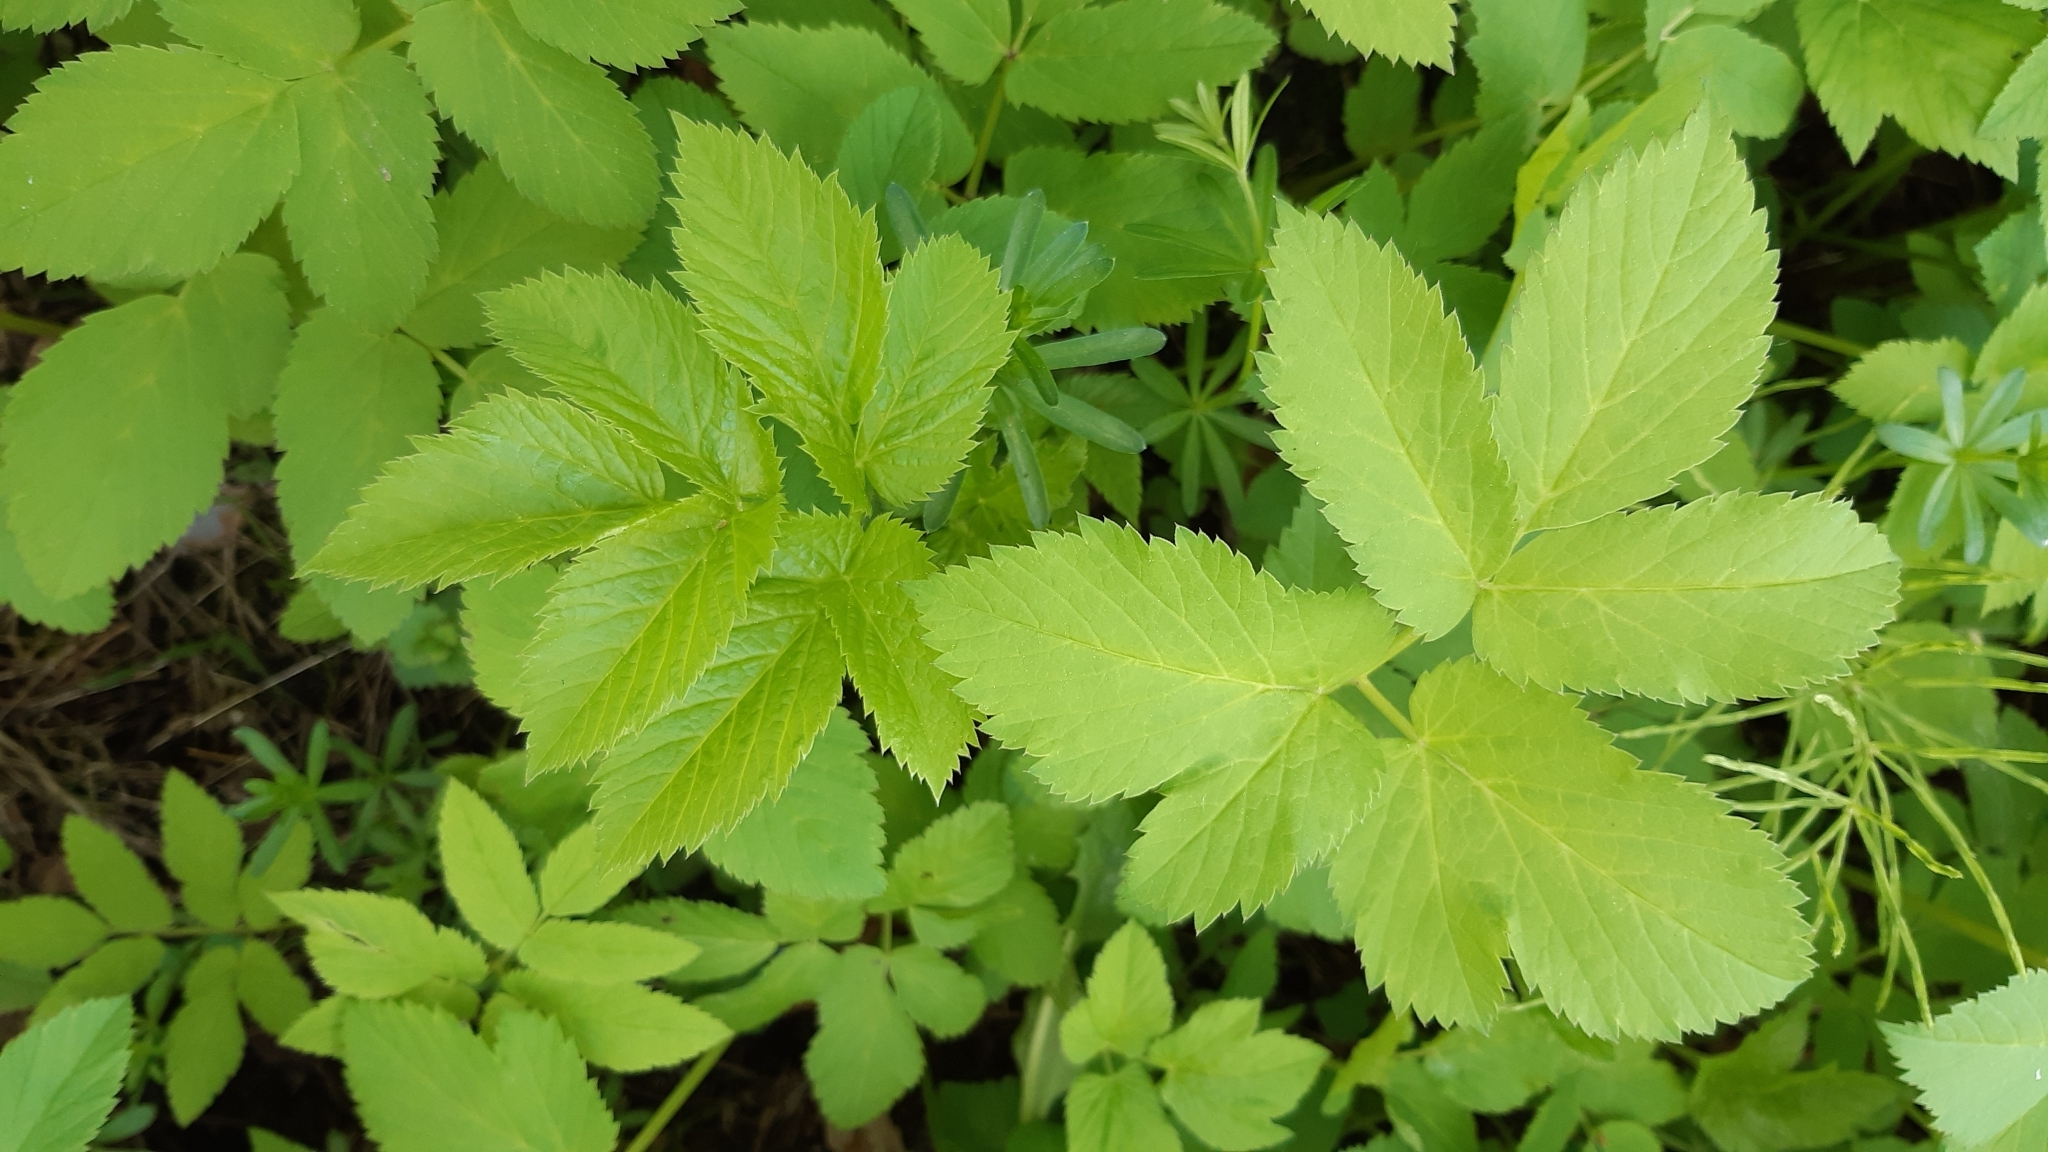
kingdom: Plantae
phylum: Tracheophyta
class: Magnoliopsida
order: Apiales
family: Apiaceae
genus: Aegopodium
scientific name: Aegopodium podagraria
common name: Ground-elder
